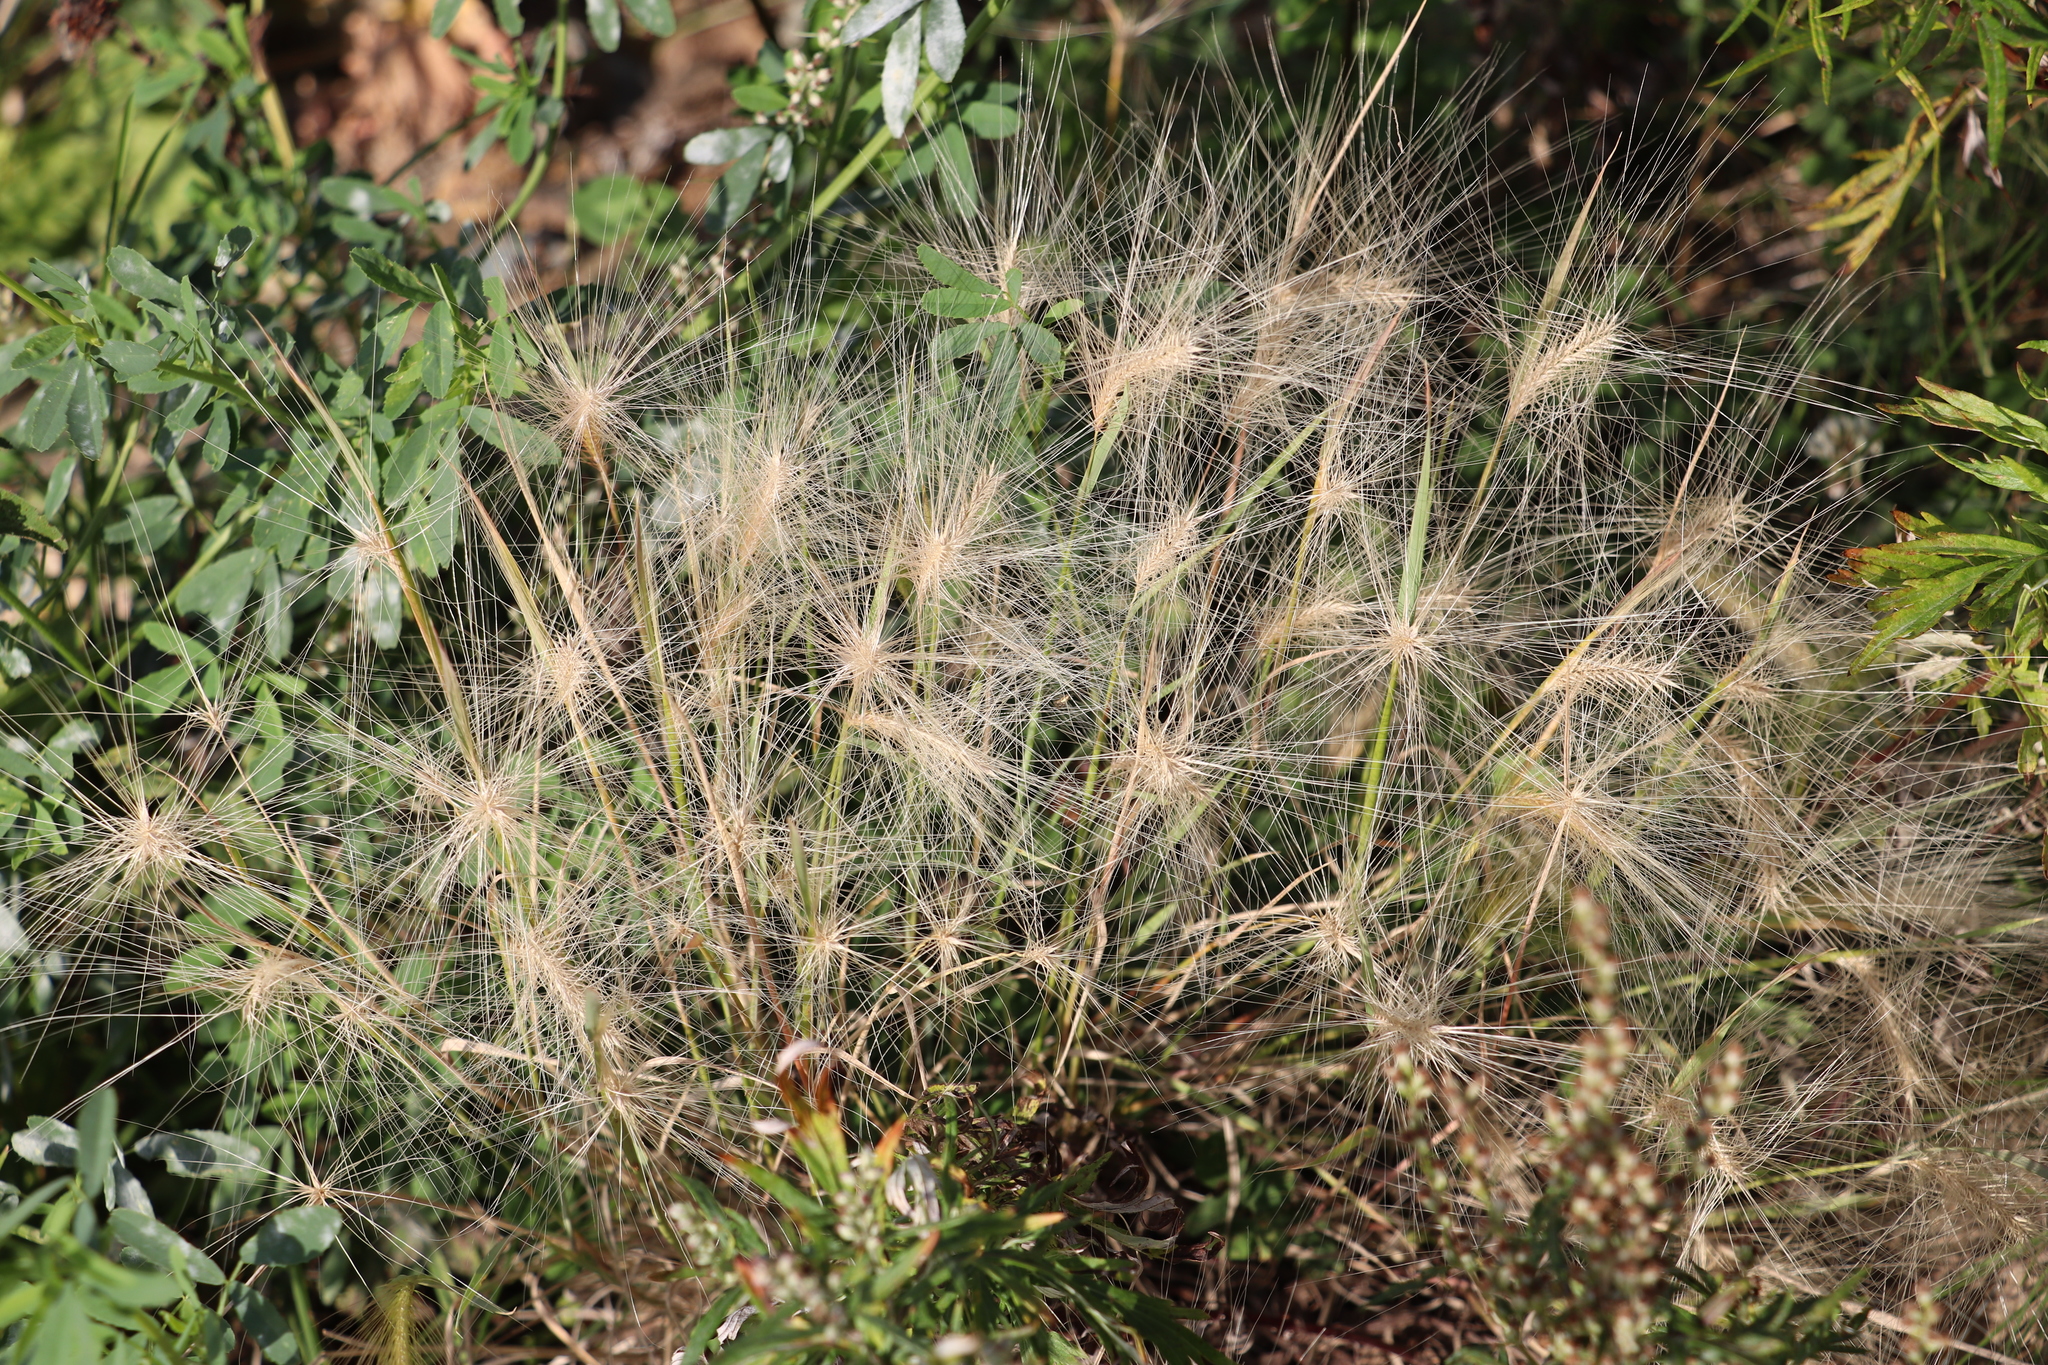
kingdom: Plantae
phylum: Tracheophyta
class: Liliopsida
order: Poales
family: Poaceae
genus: Hordeum
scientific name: Hordeum jubatum
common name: Foxtail barley
